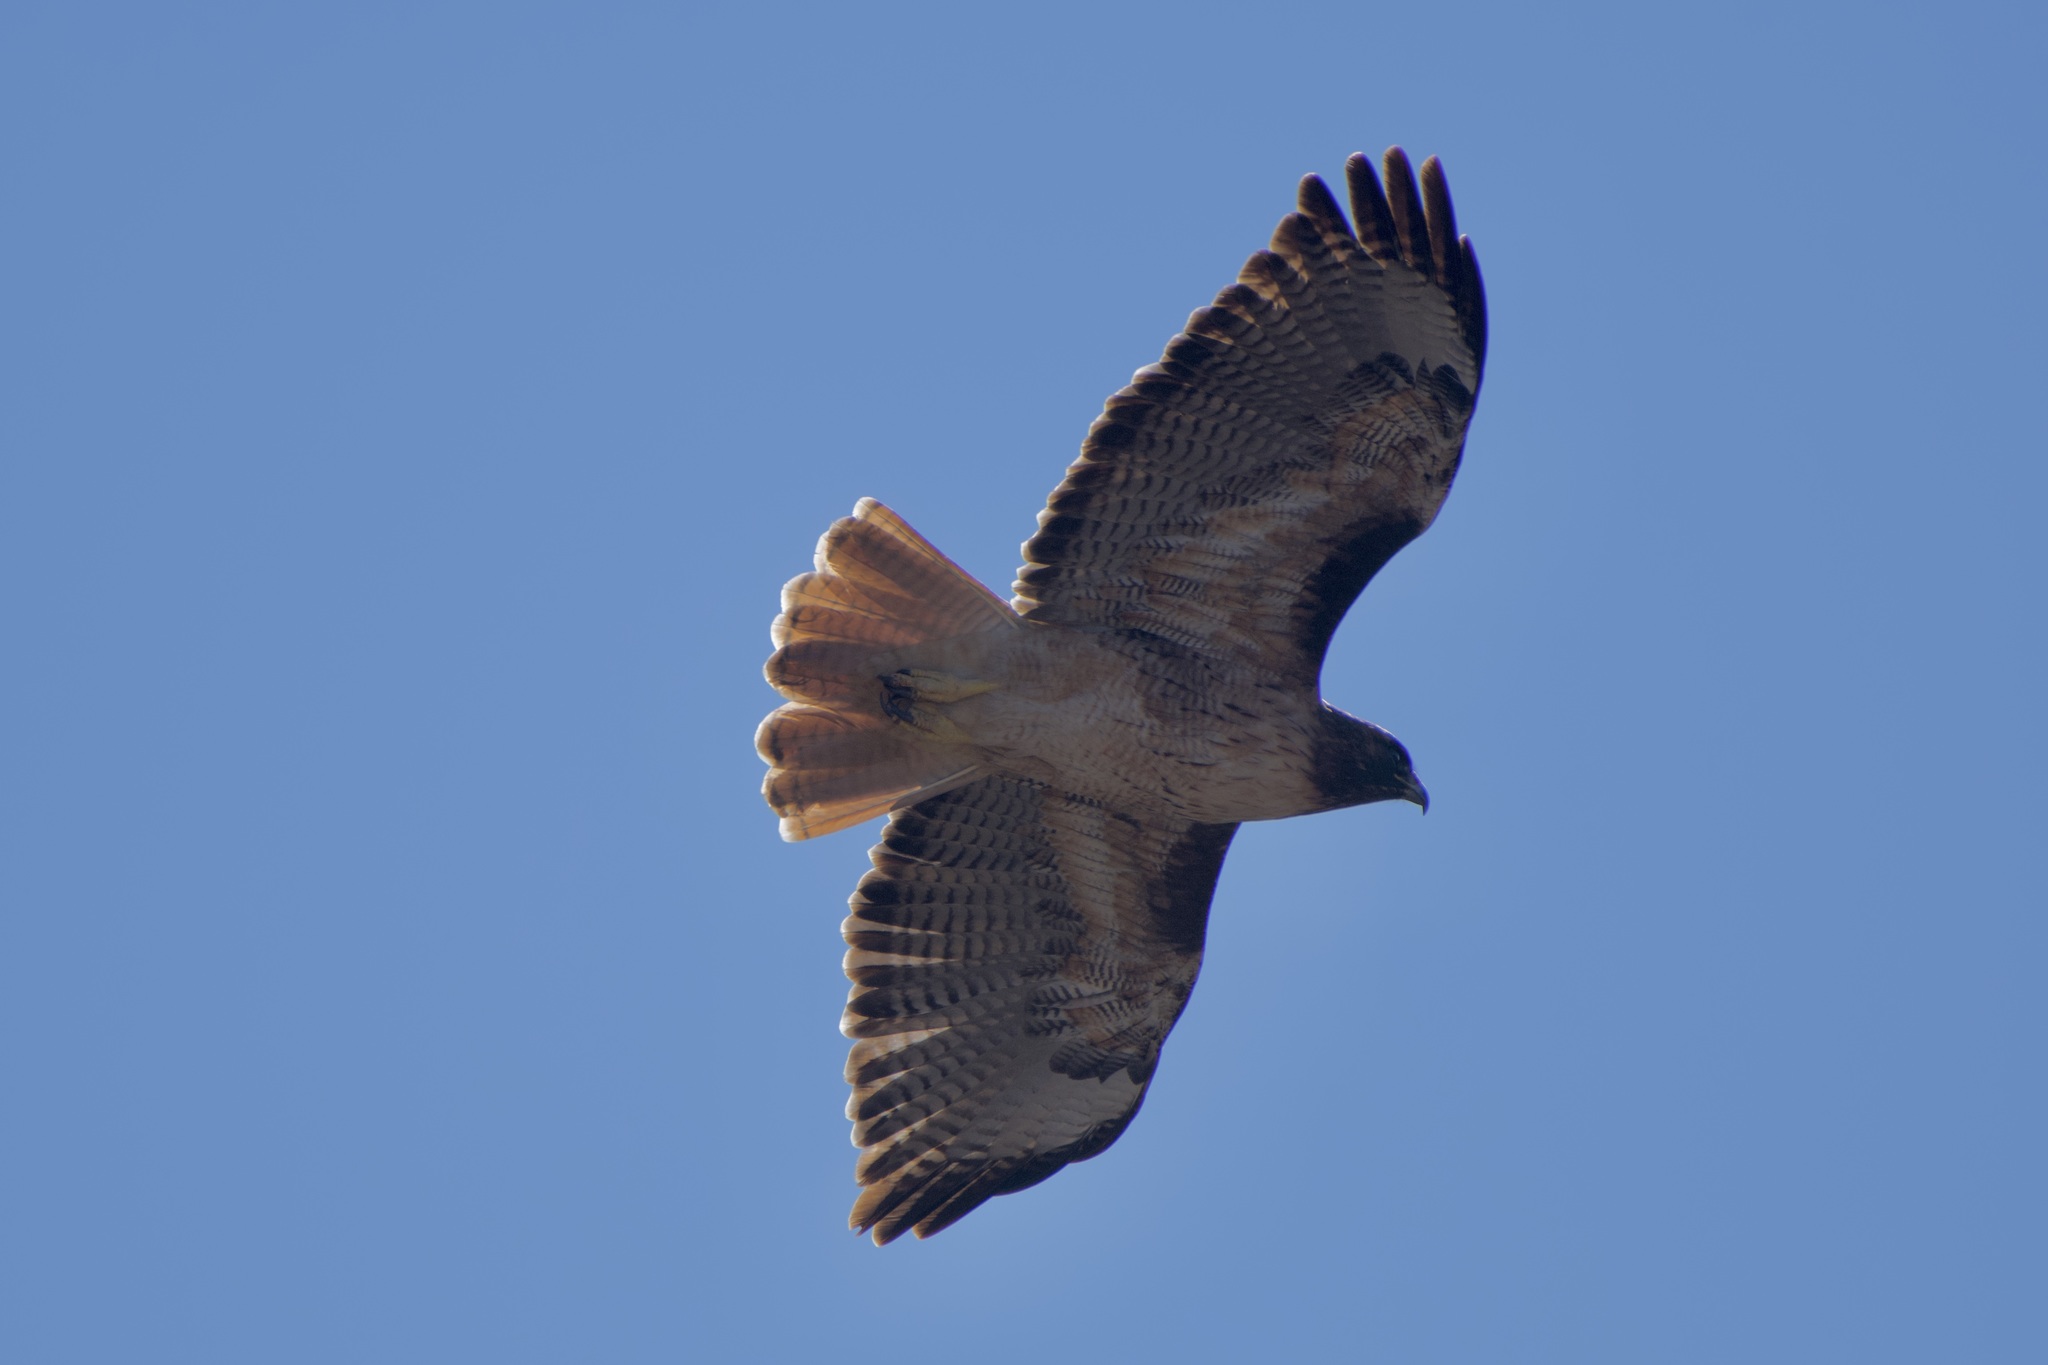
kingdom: Animalia
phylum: Chordata
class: Aves
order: Accipitriformes
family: Accipitridae
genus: Buteo
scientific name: Buteo jamaicensis
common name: Red-tailed hawk
